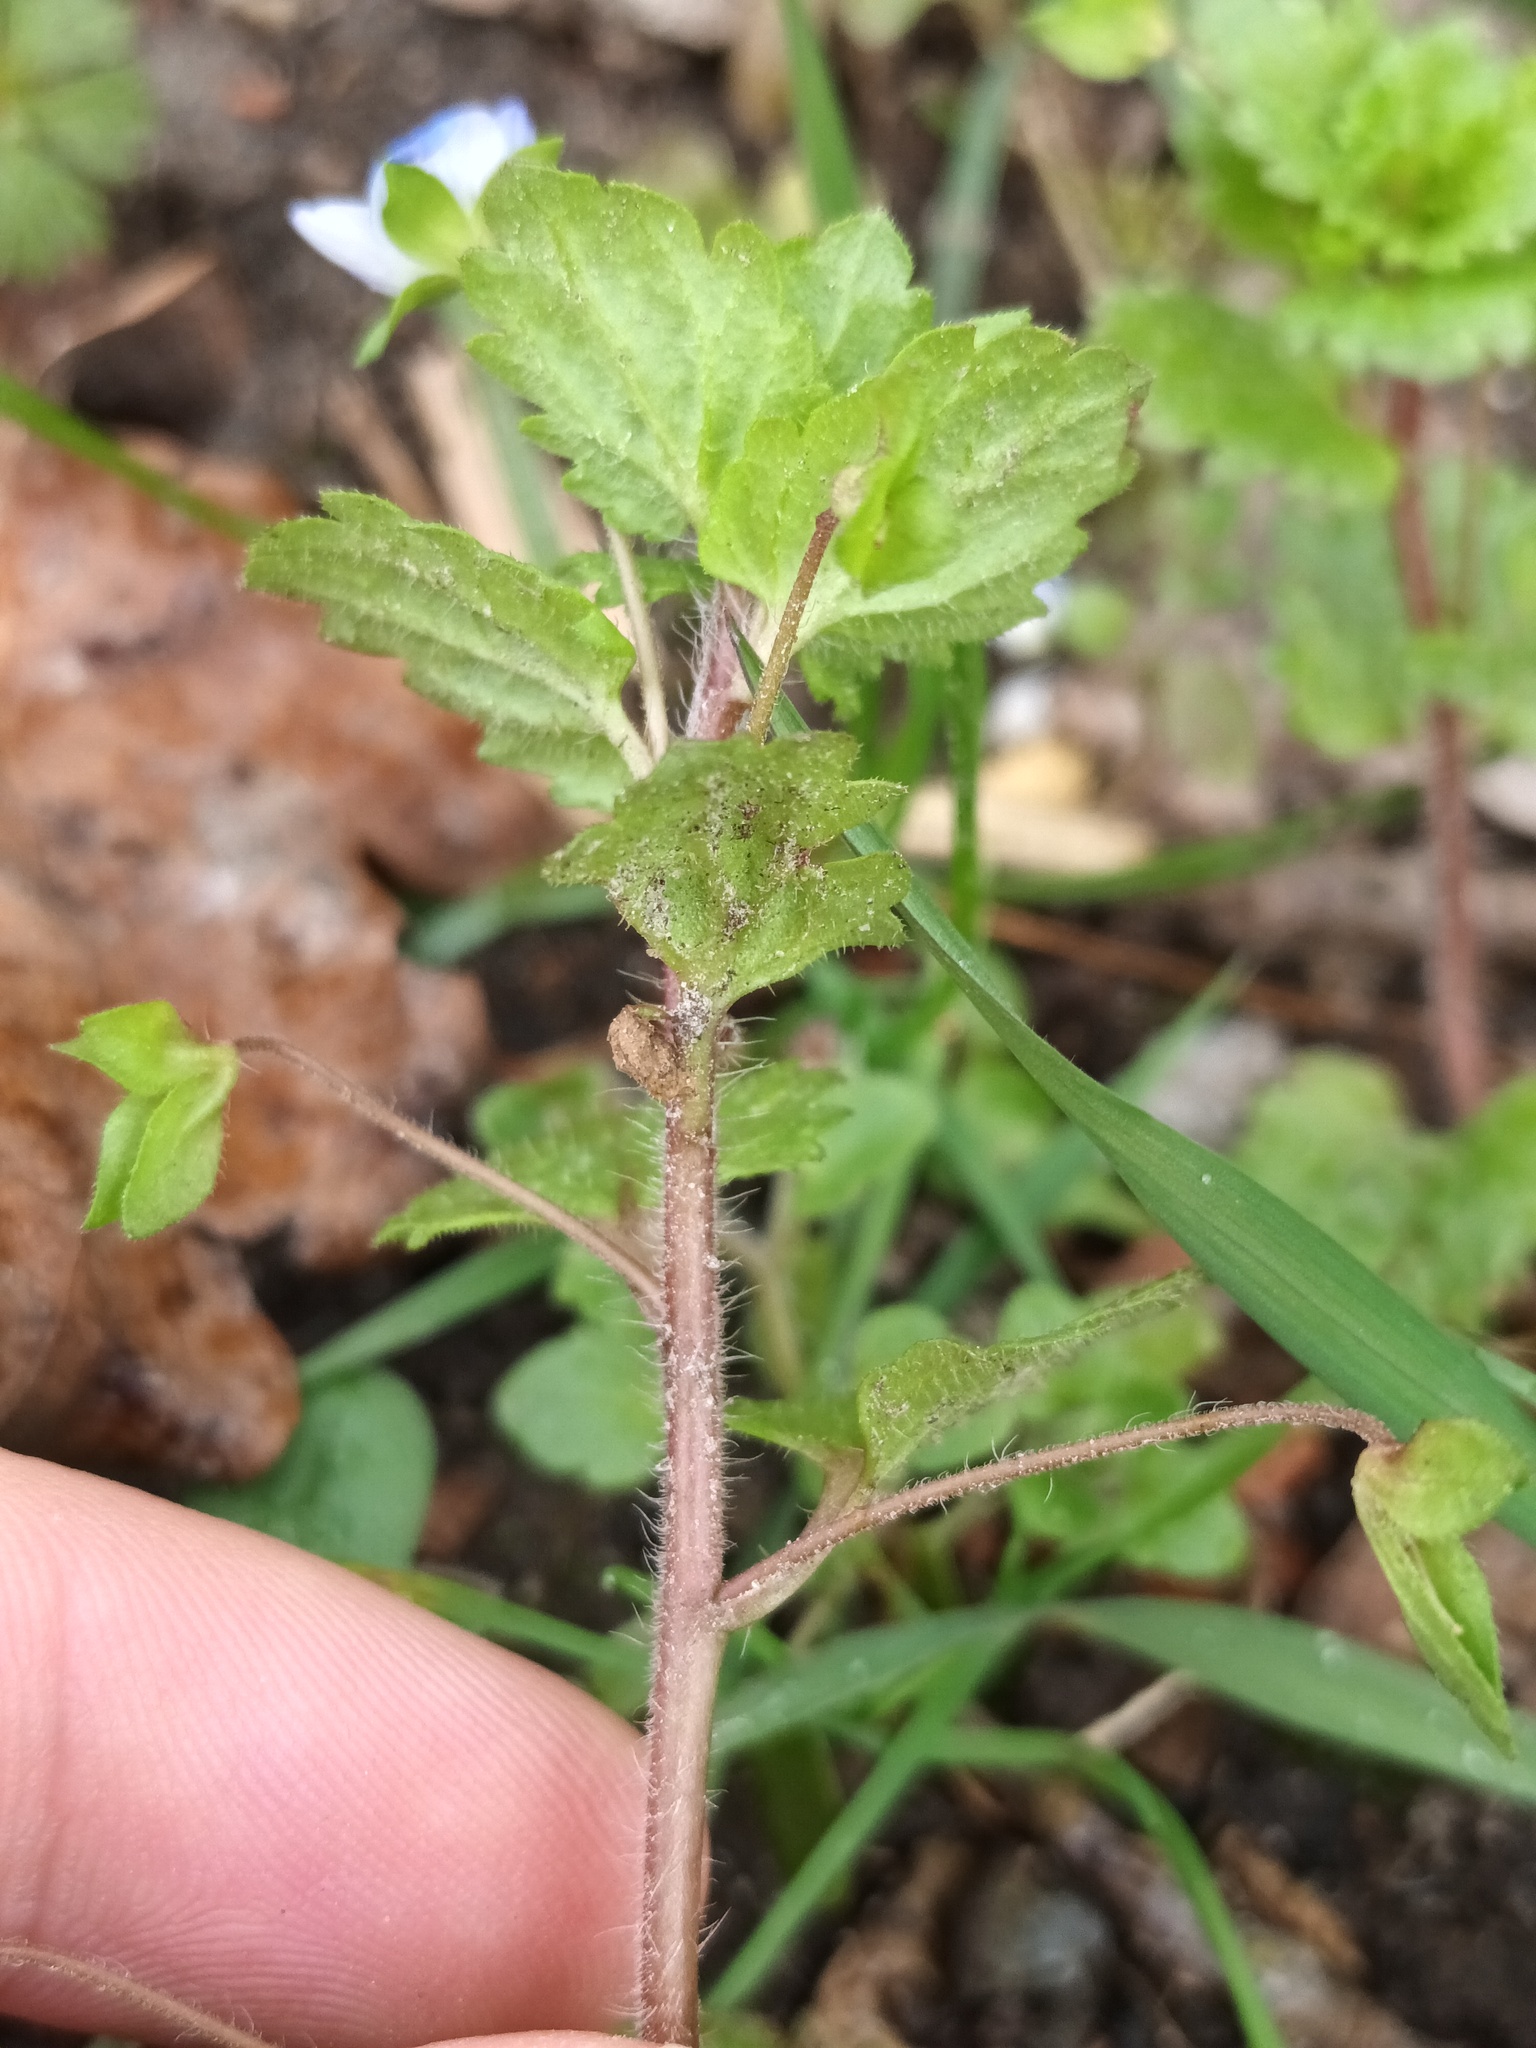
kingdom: Plantae
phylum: Tracheophyta
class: Magnoliopsida
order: Lamiales
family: Plantaginaceae
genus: Veronica
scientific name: Veronica persica
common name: Common field-speedwell
